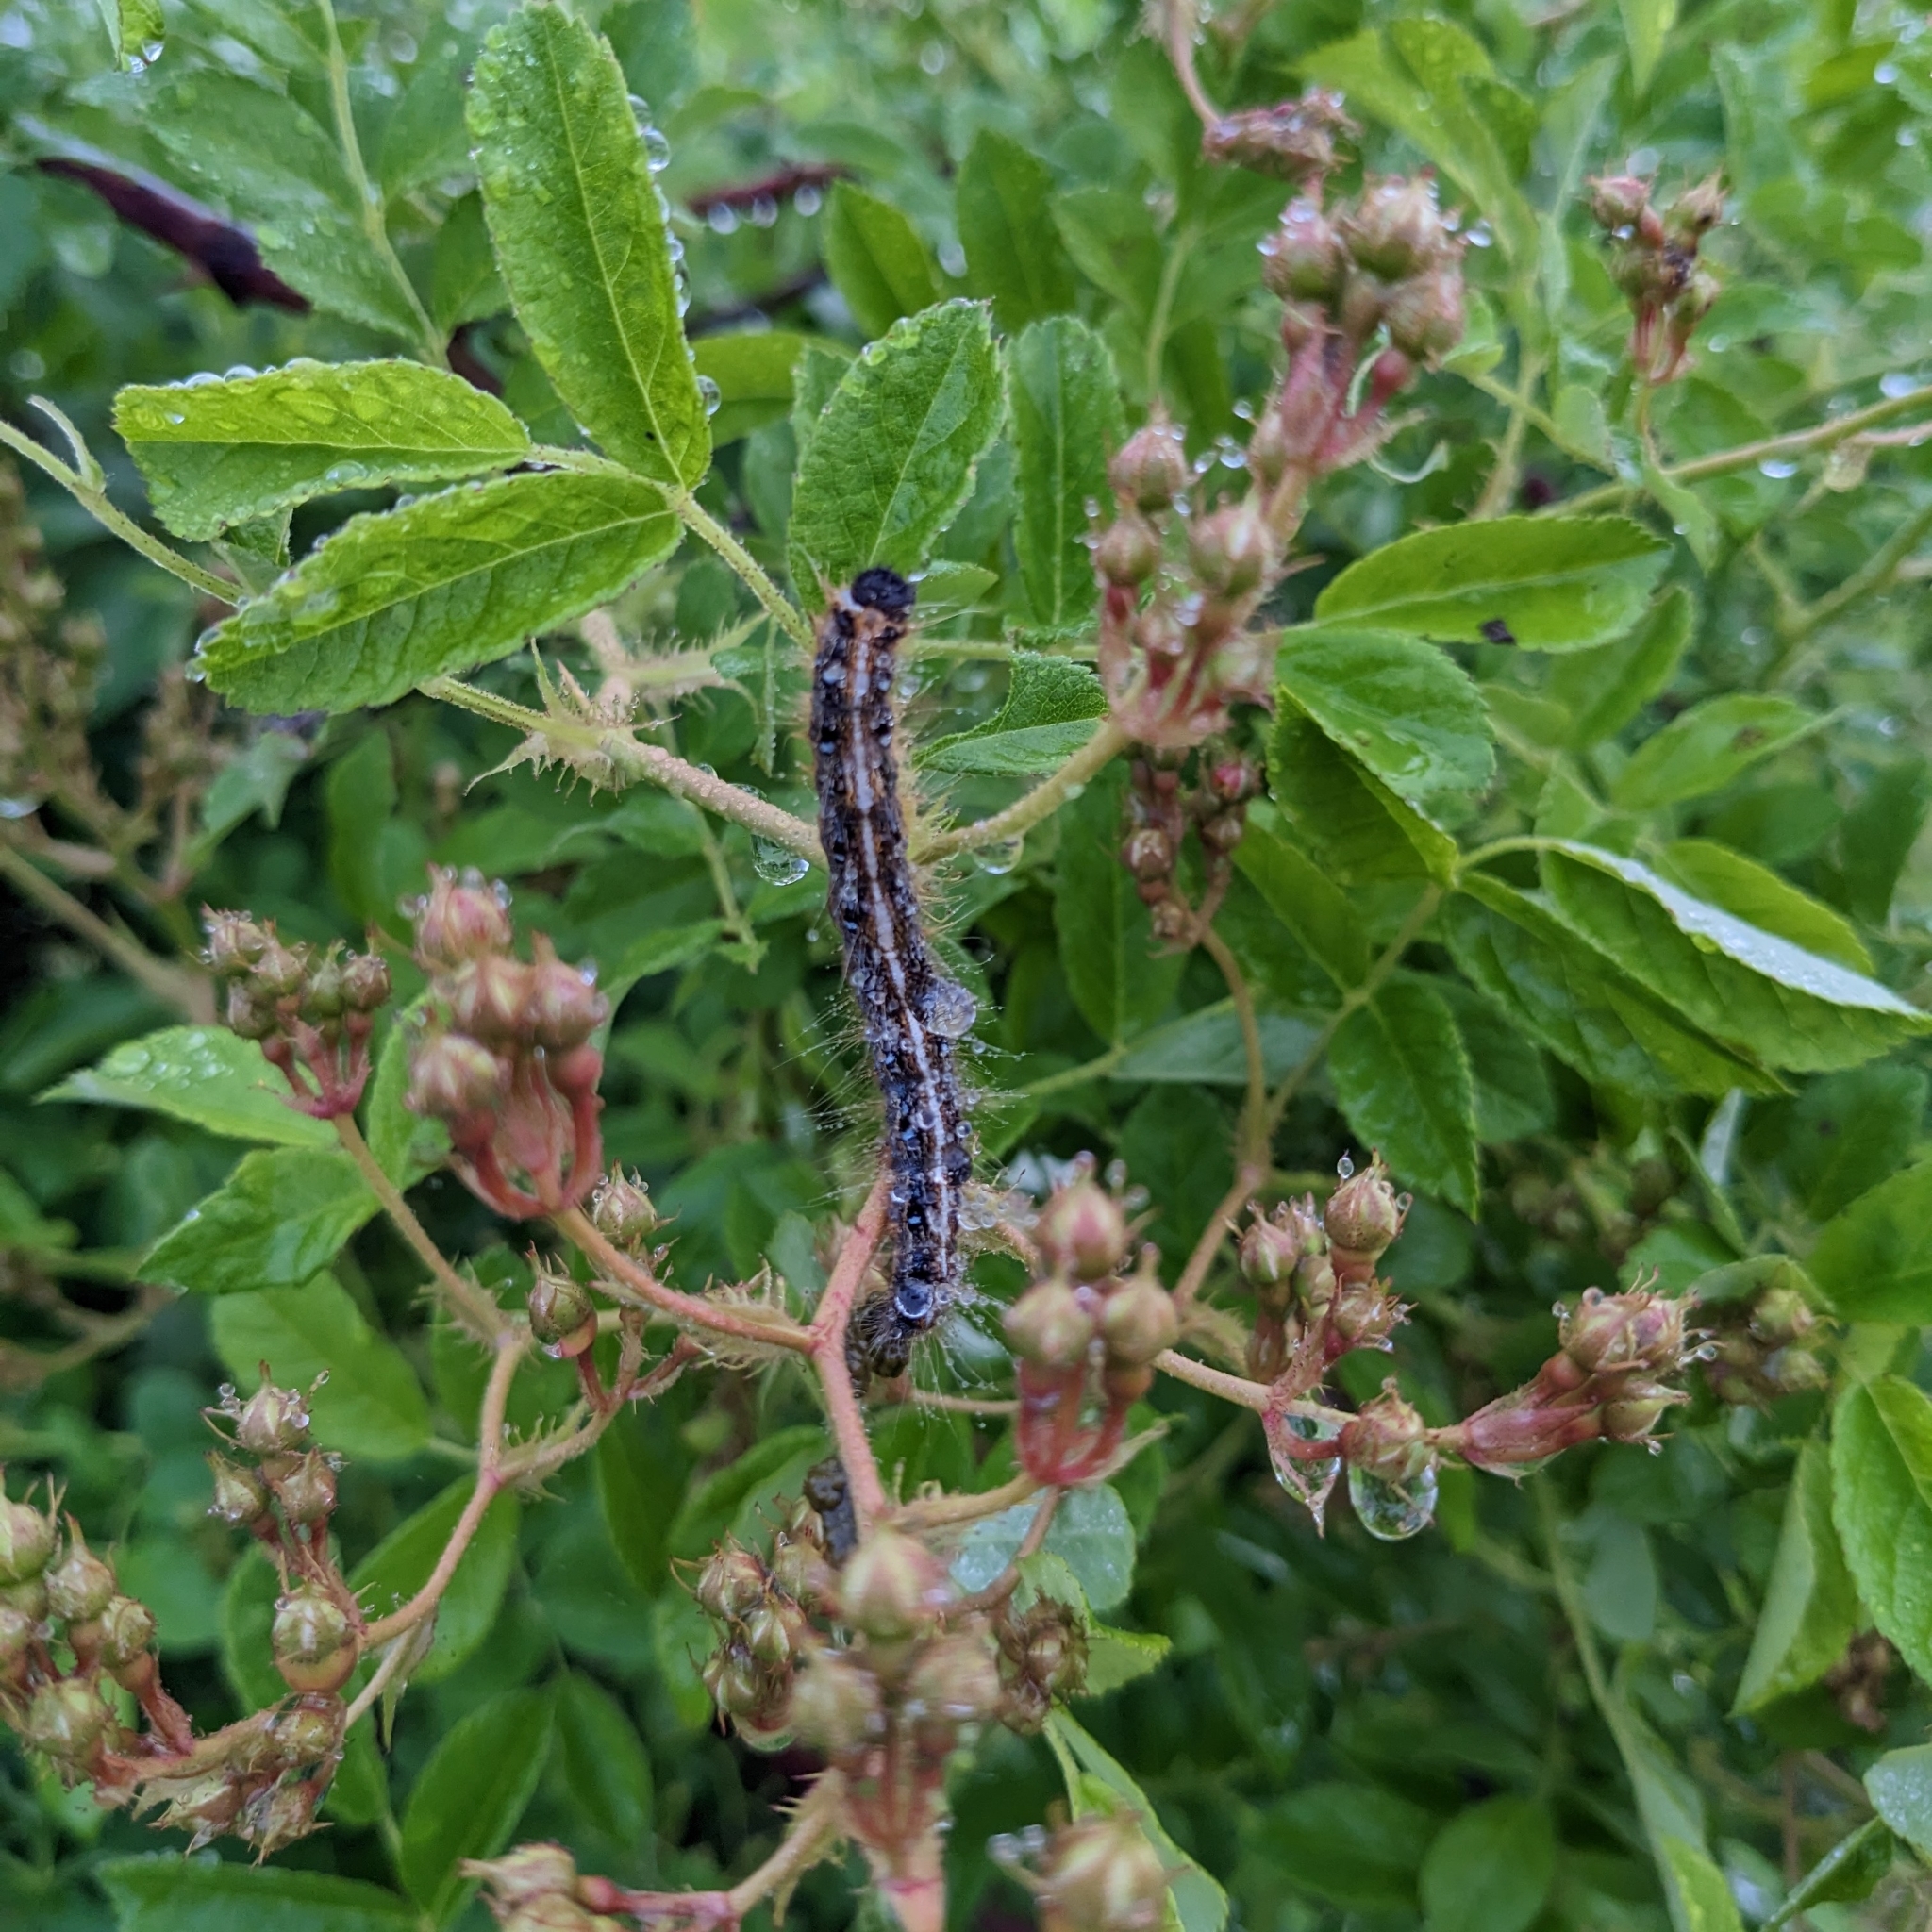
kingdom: Animalia
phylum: Arthropoda
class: Insecta
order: Lepidoptera
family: Lasiocampidae
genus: Malacosoma
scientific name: Malacosoma americana
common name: Eastern tent caterpillar moth
